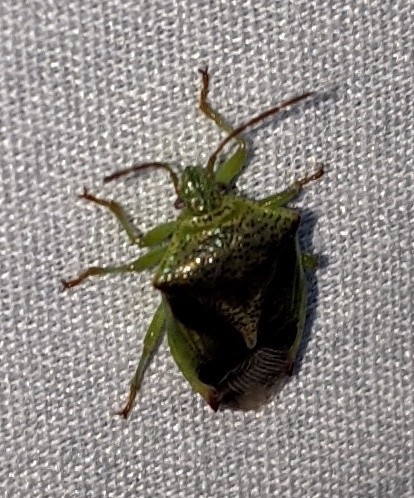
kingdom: Animalia
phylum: Arthropoda
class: Insecta
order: Hemiptera
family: Acanthosomatidae
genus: Elasmostethus
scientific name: Elasmostethus cruciatus
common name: Red-cross shield bug
